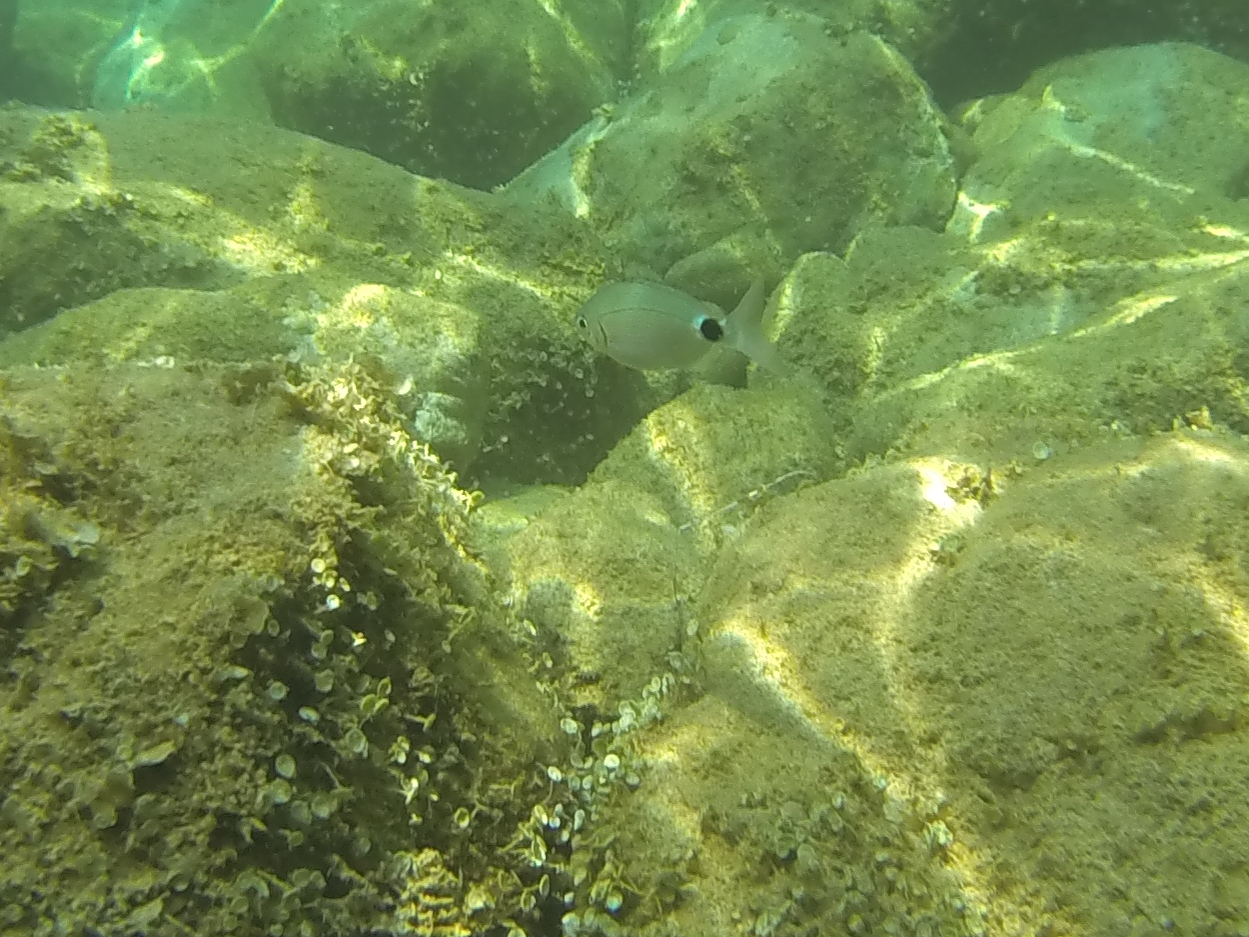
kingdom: Animalia
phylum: Chordata
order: Perciformes
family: Sparidae
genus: Oblada
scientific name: Oblada melanura
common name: Saddled seabream
